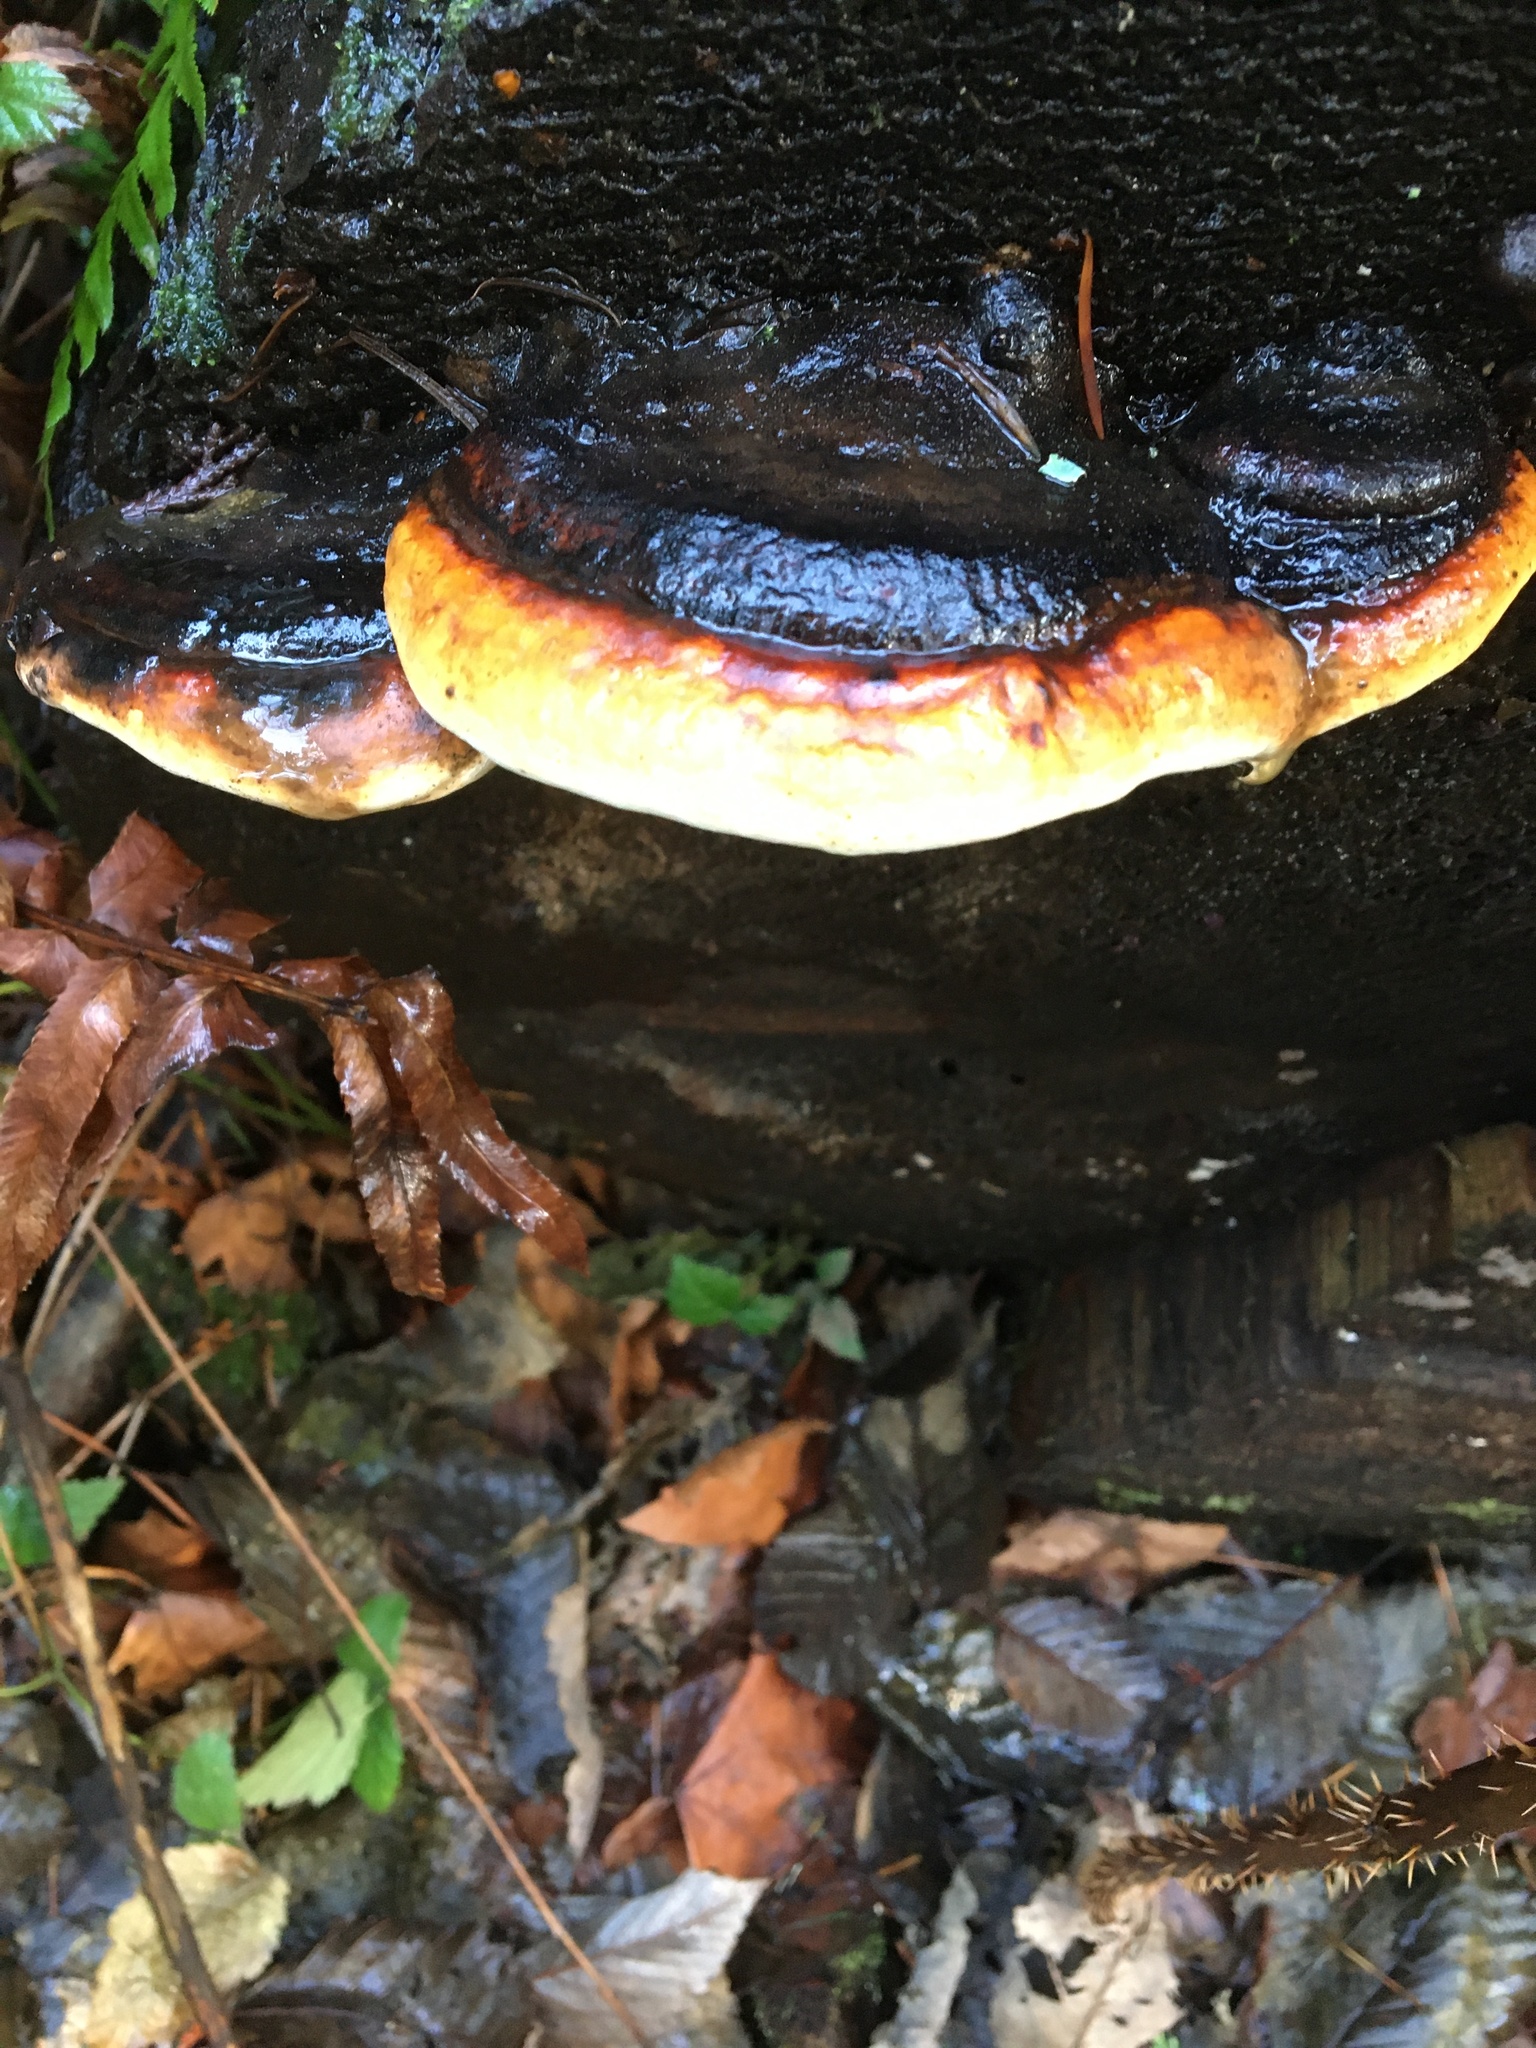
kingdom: Fungi
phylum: Basidiomycota
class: Agaricomycetes
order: Polyporales
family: Fomitopsidaceae
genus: Fomitopsis
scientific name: Fomitopsis mounceae
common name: Northern red belt
